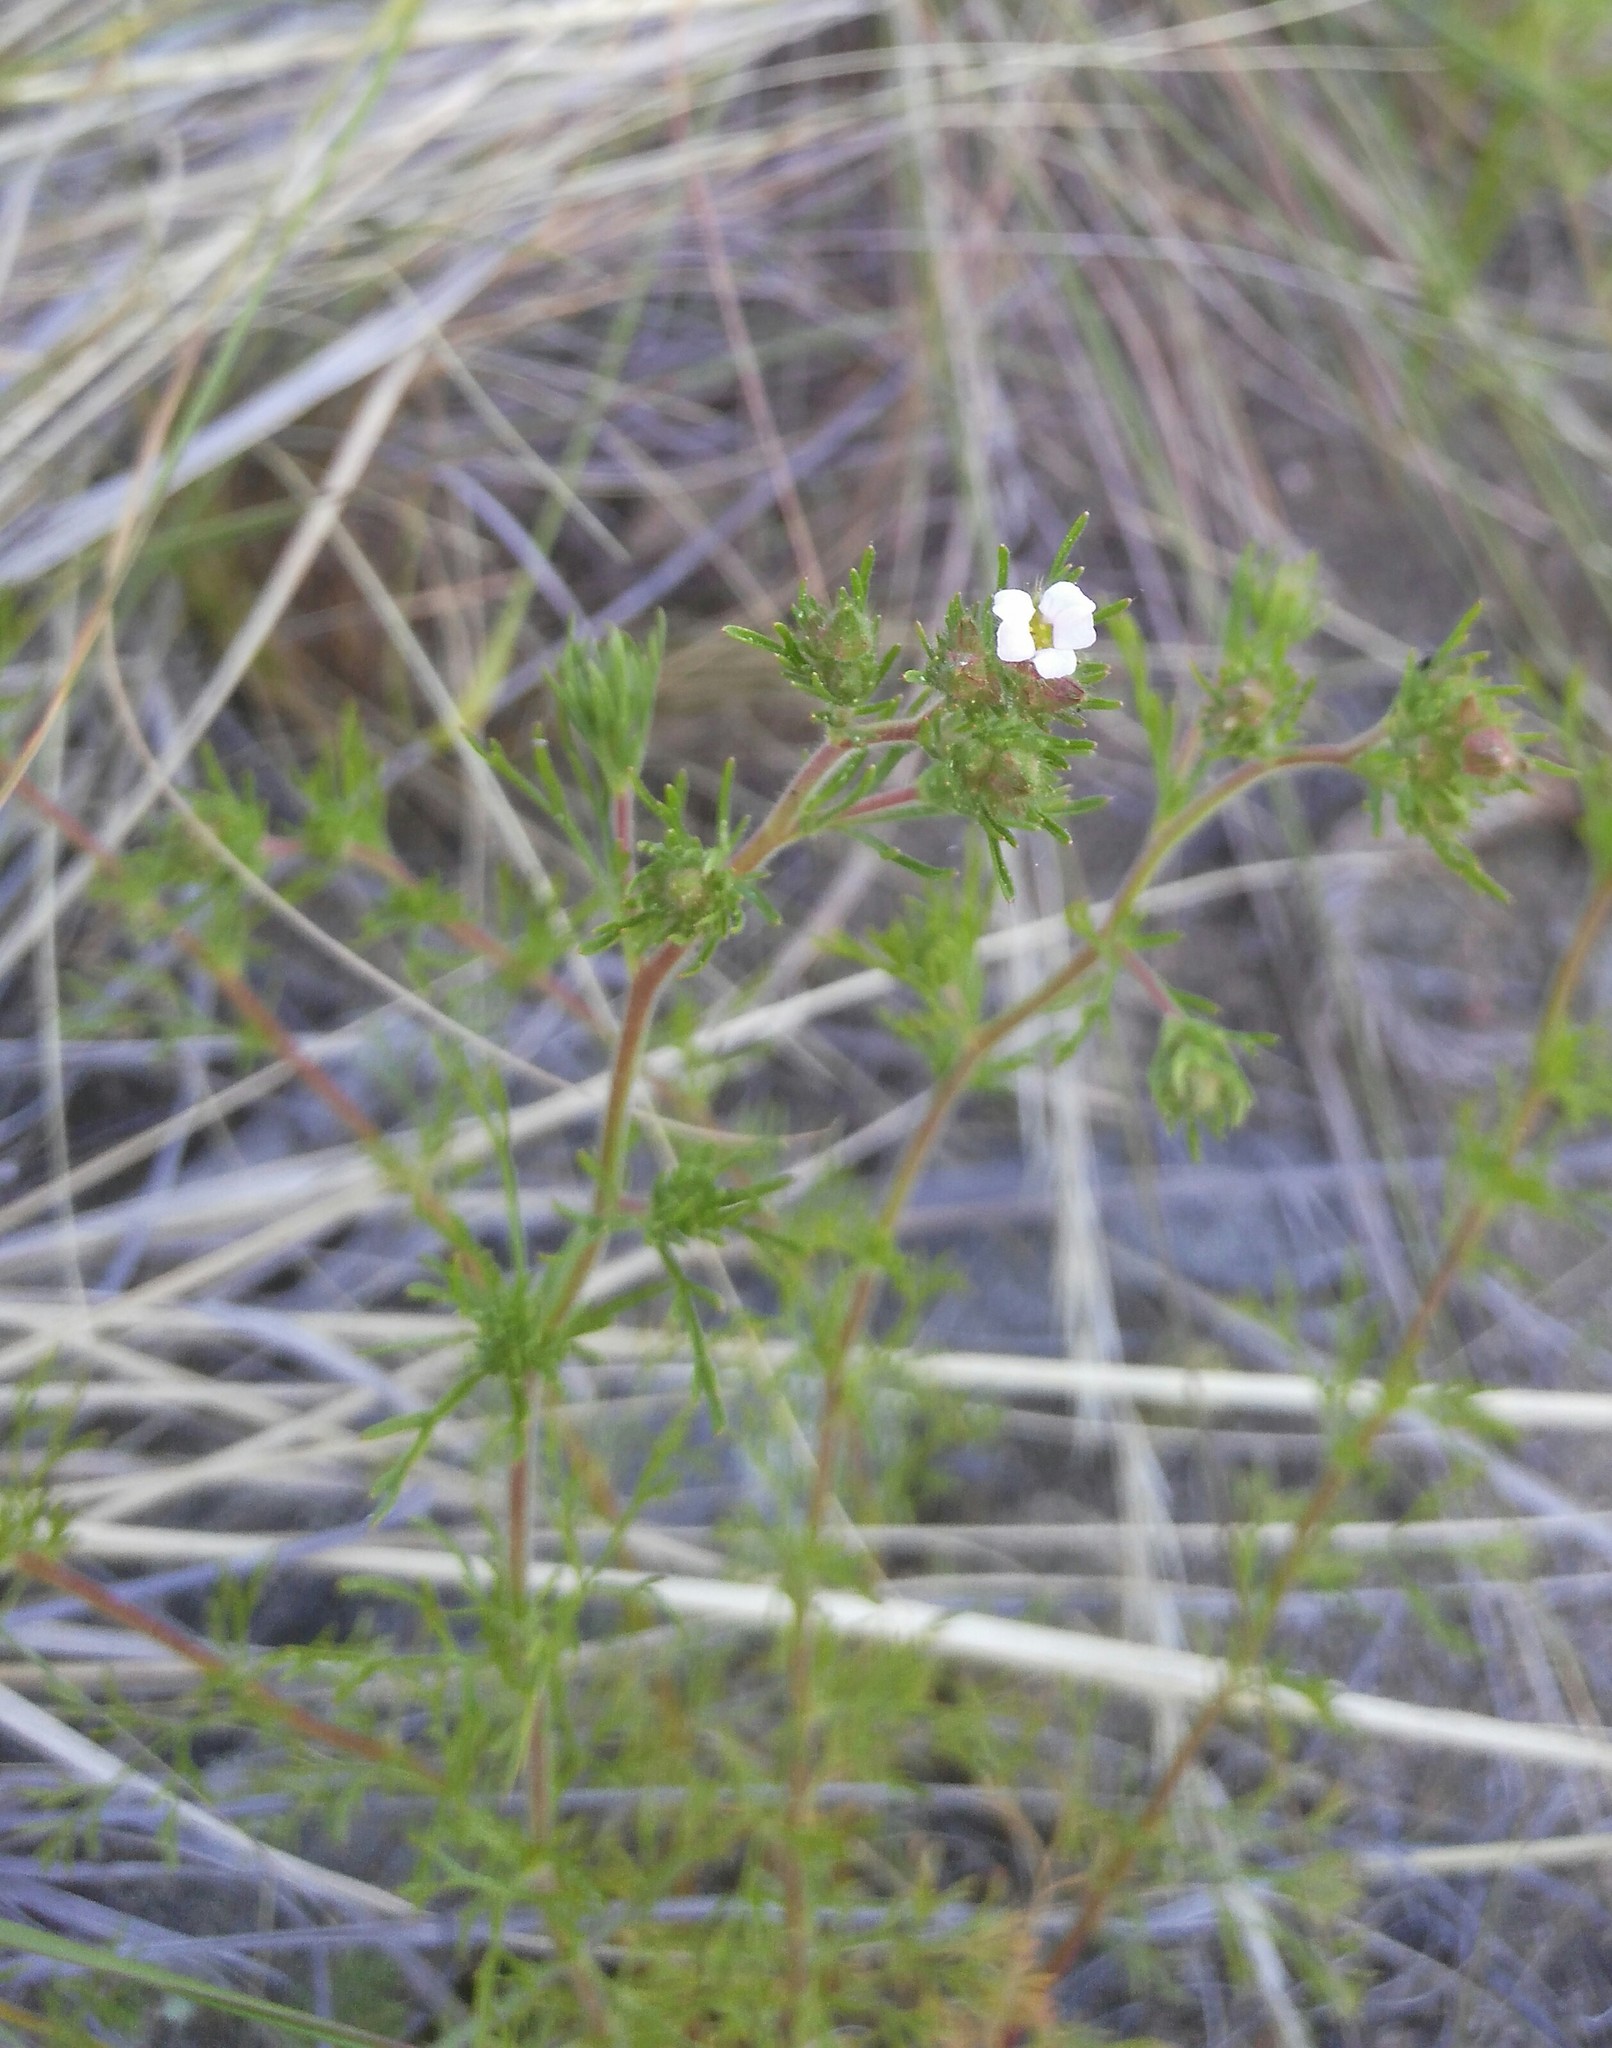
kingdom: Plantae
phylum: Tracheophyta
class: Magnoliopsida
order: Rosales
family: Rosaceae
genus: Chamaerhodos
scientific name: Chamaerhodos erecta
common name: American chamaerhodos
